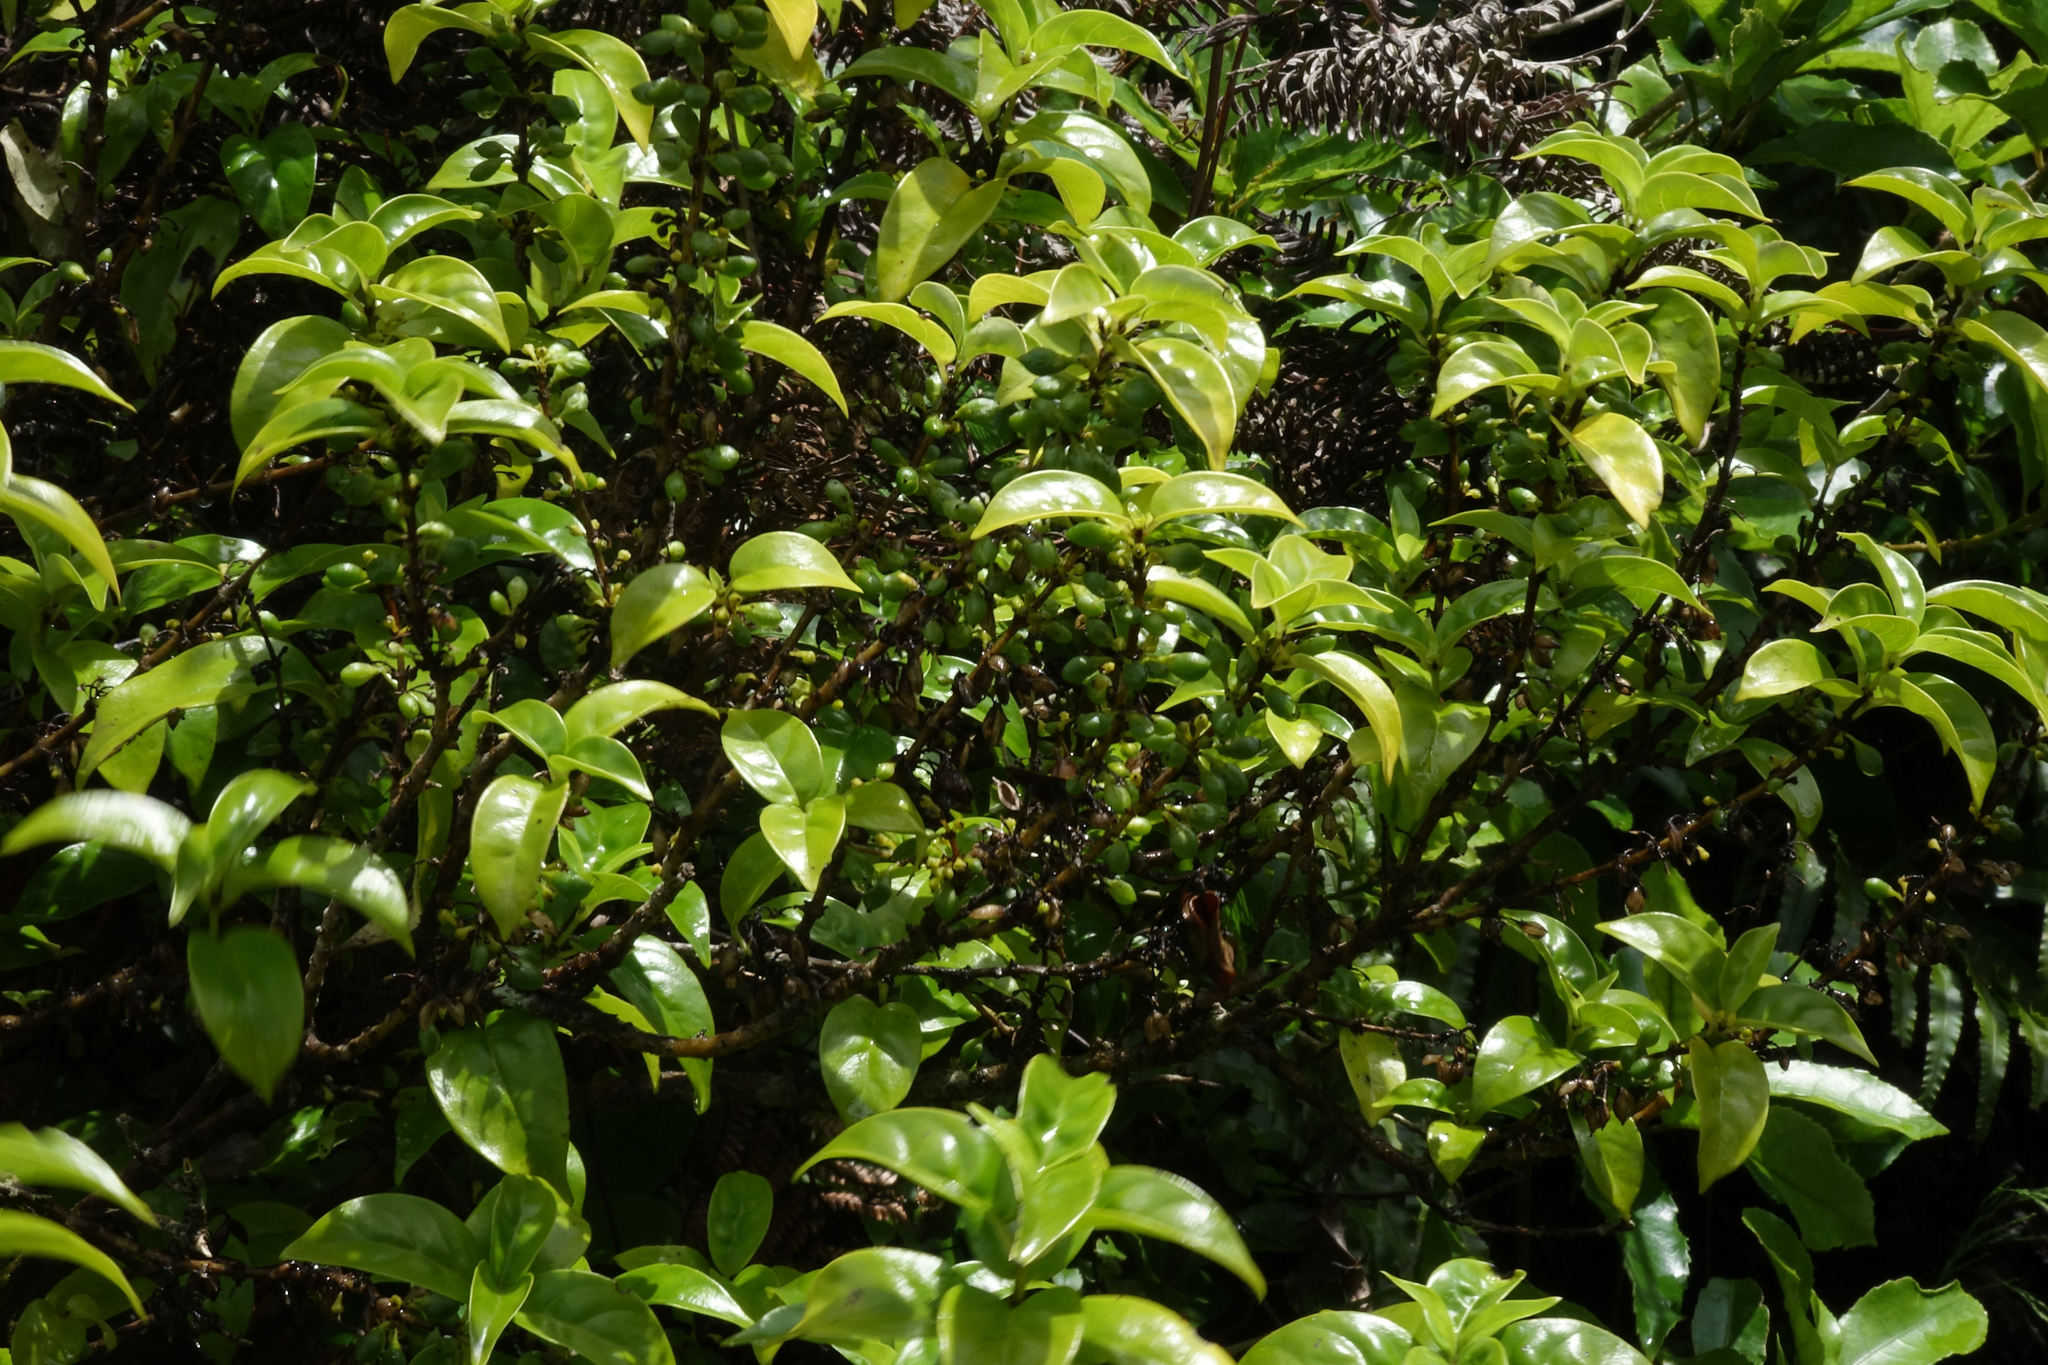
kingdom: Plantae
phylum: Tracheophyta
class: Magnoliopsida
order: Gentianales
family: Loganiaceae
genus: Geniostoma
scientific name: Geniostoma ligustrifolium
